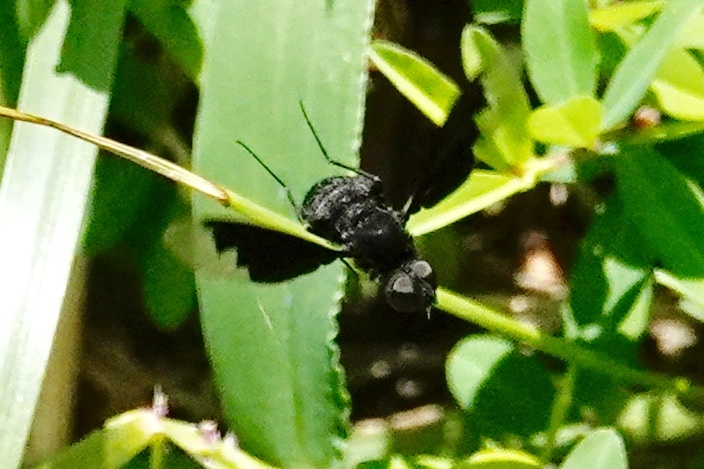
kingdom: Animalia
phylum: Arthropoda
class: Insecta
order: Diptera
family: Bombyliidae
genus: Anthrax
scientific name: Anthrax analis
